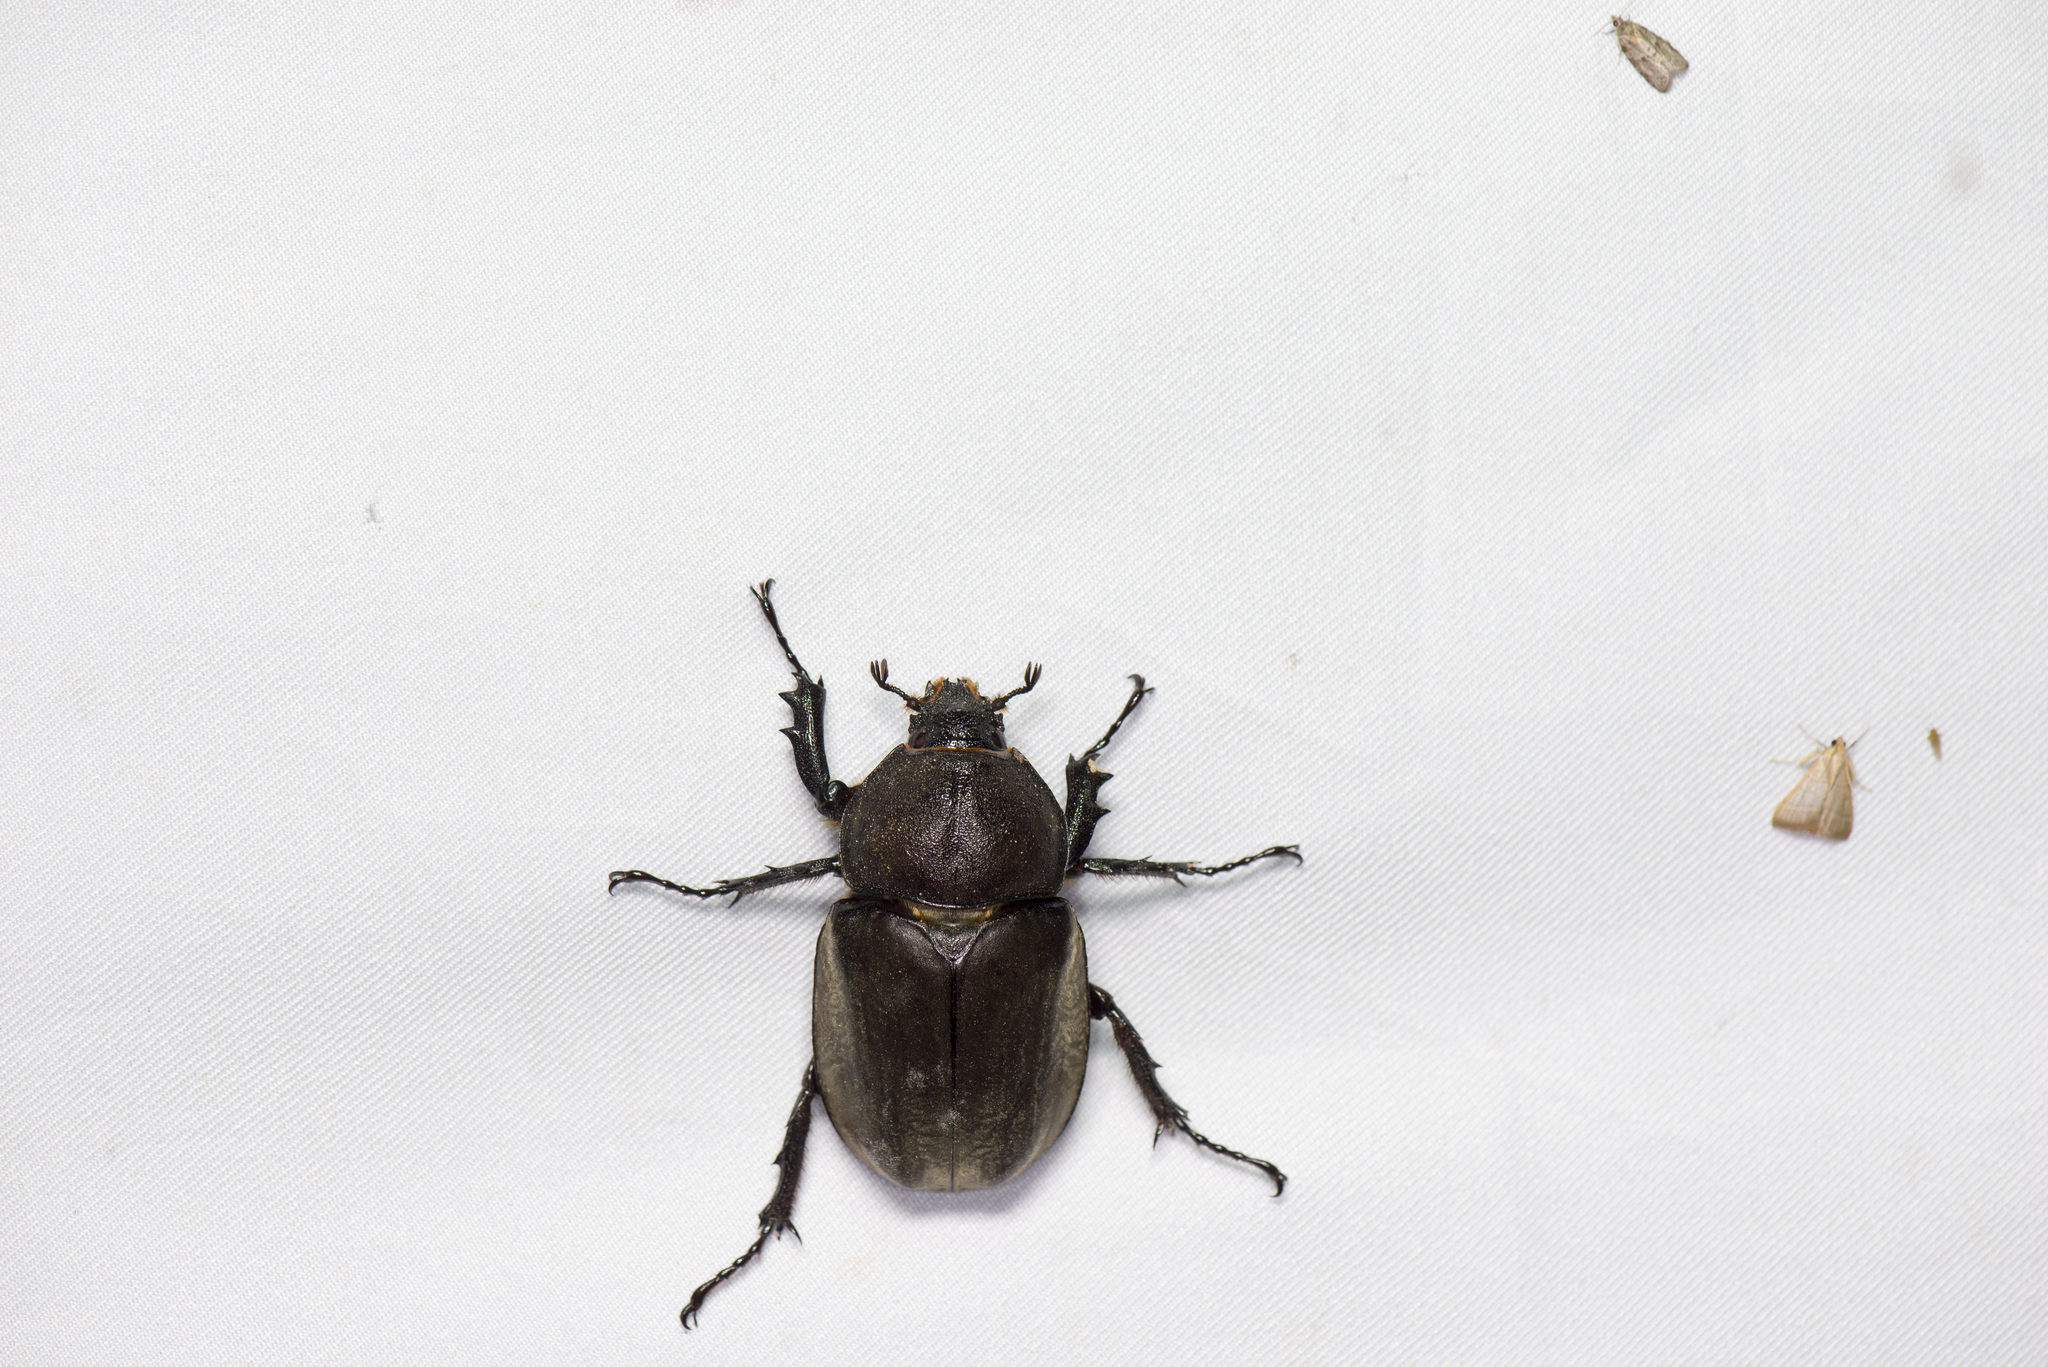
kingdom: Animalia
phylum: Arthropoda
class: Insecta
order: Coleoptera
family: Scarabaeidae
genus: Trypoxylus
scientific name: Trypoxylus dichotomus
